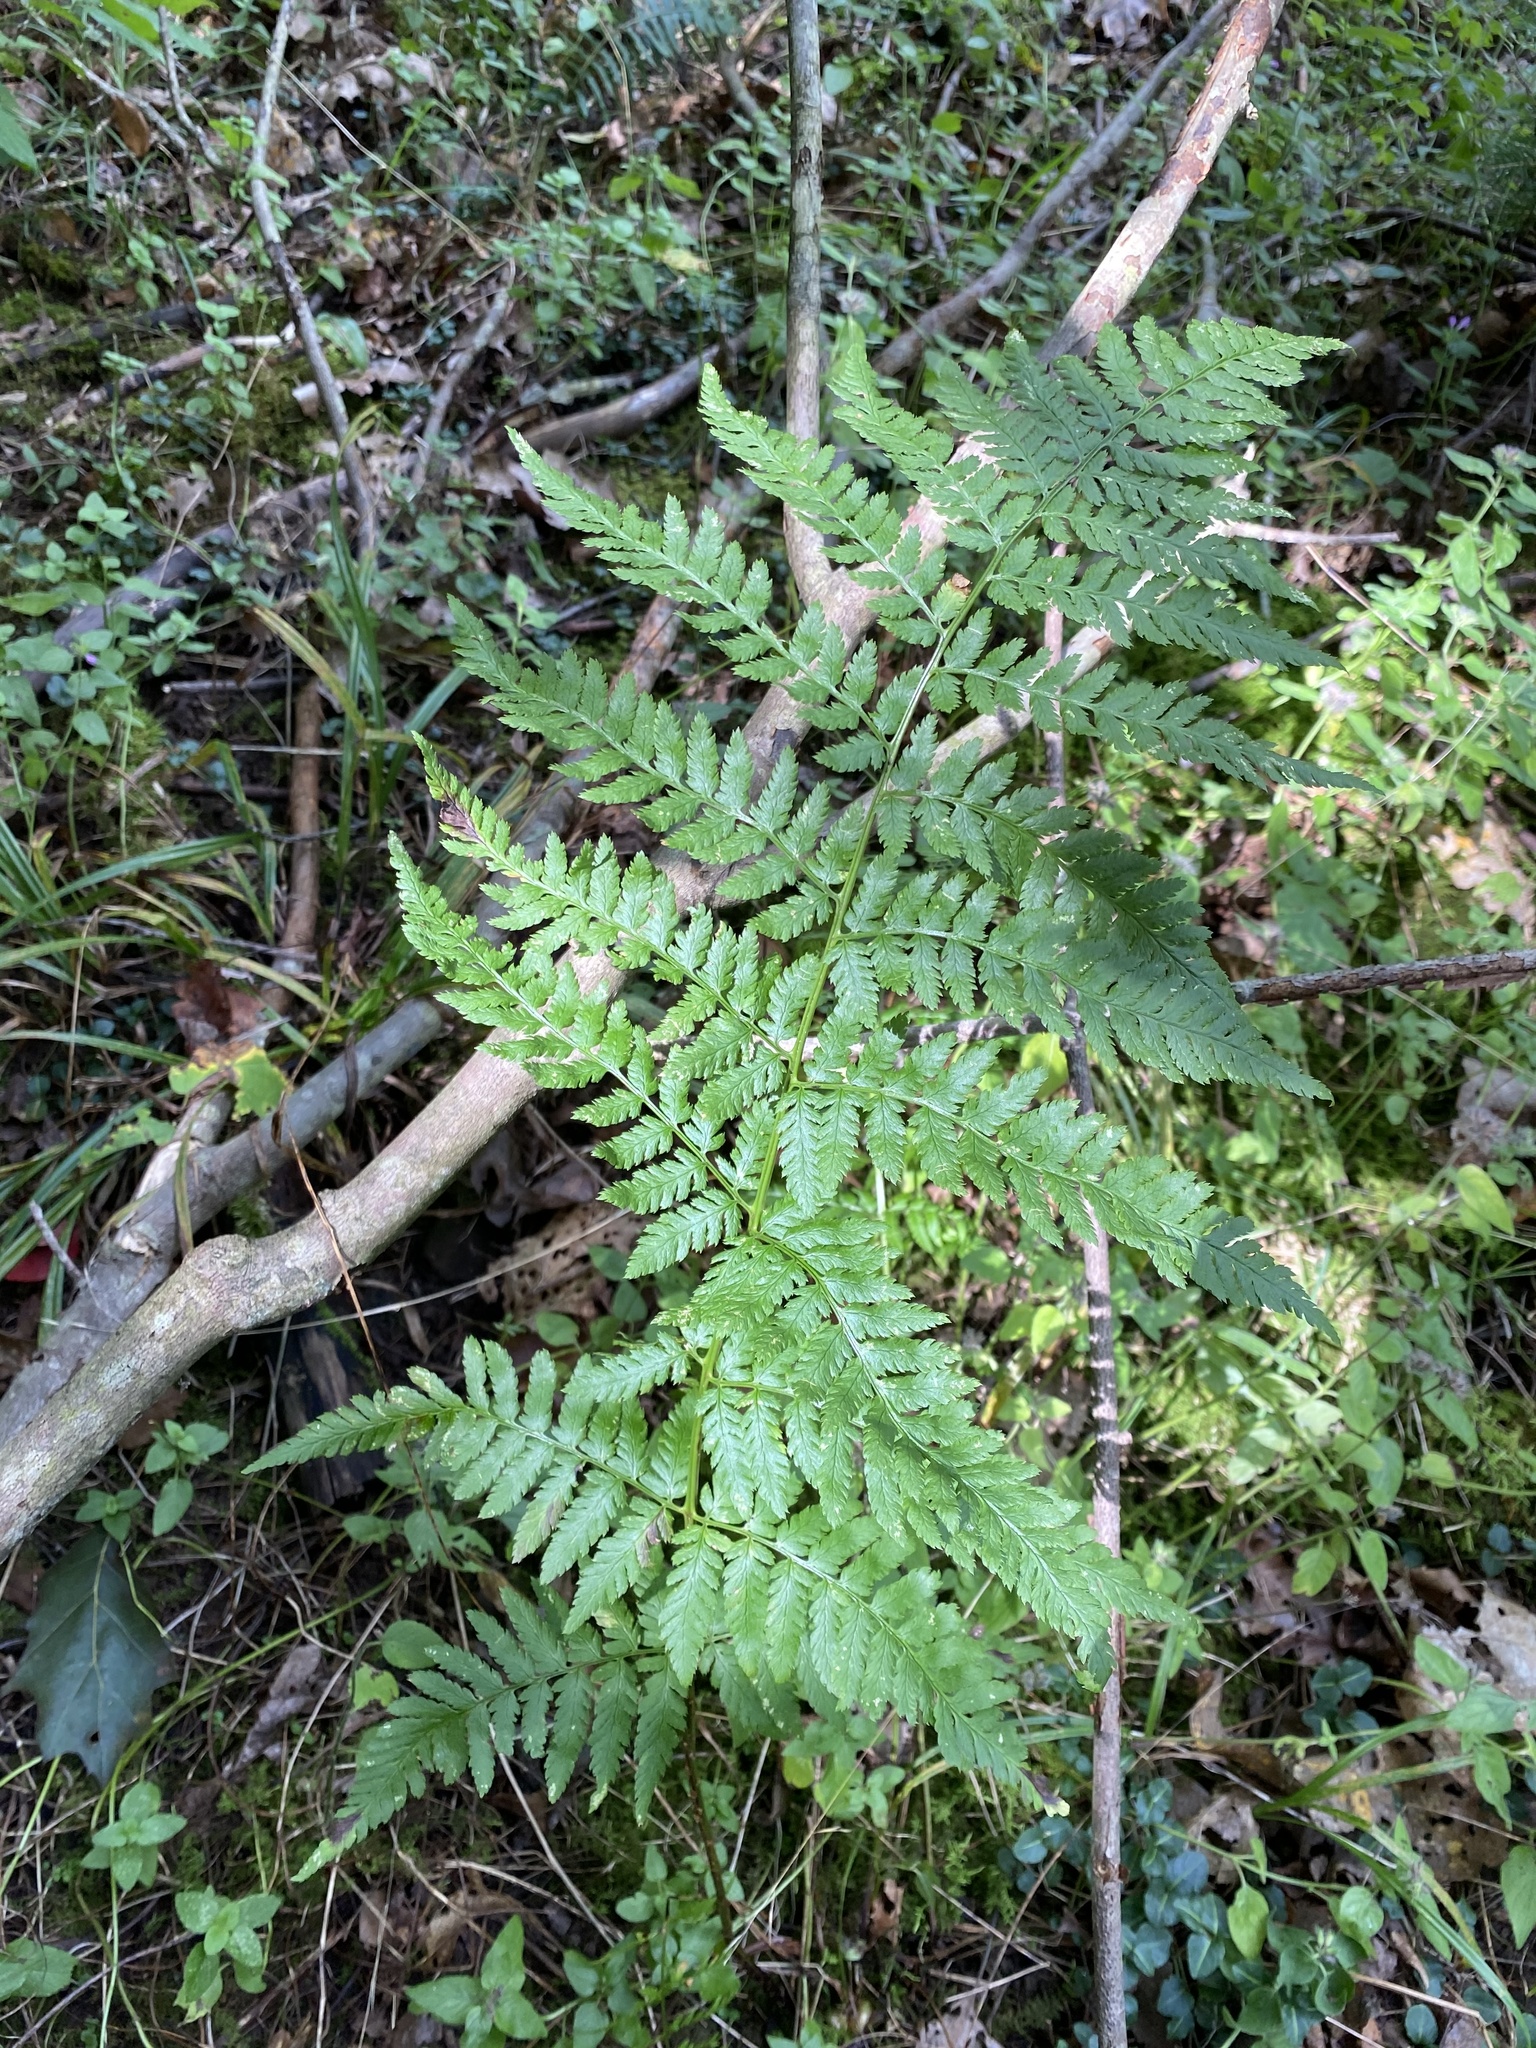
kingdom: Plantae
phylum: Tracheophyta
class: Polypodiopsida
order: Polypodiales
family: Dryopteridaceae
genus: Dryopteris
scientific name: Dryopteris carthusiana
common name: Narrow buckler-fern
